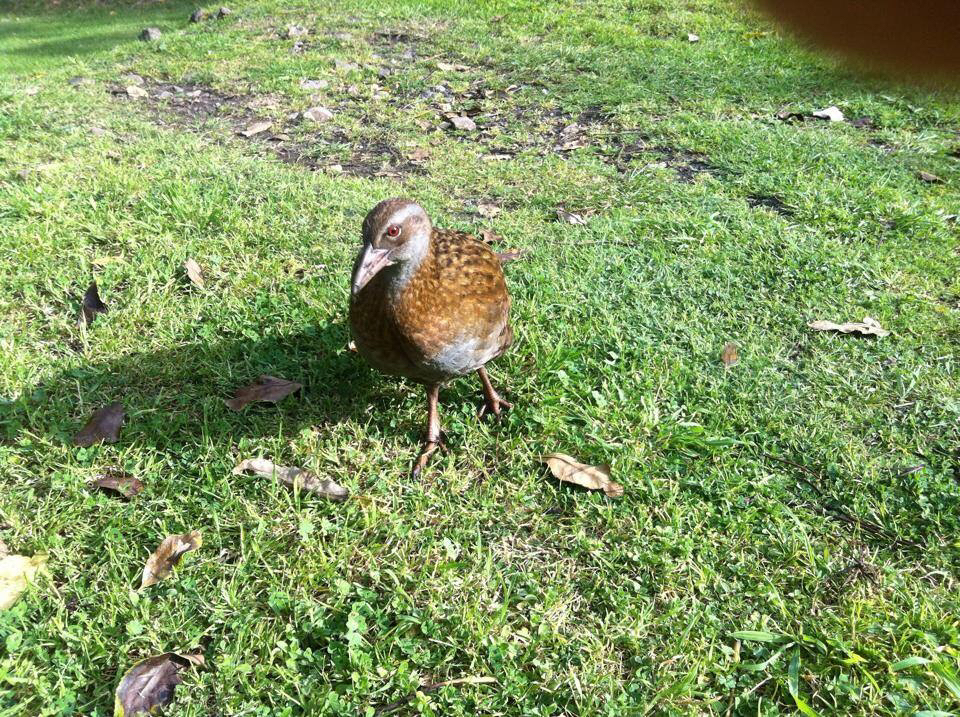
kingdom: Animalia
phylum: Chordata
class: Aves
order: Gruiformes
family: Rallidae
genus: Gallirallus
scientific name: Gallirallus australis
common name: Weka
